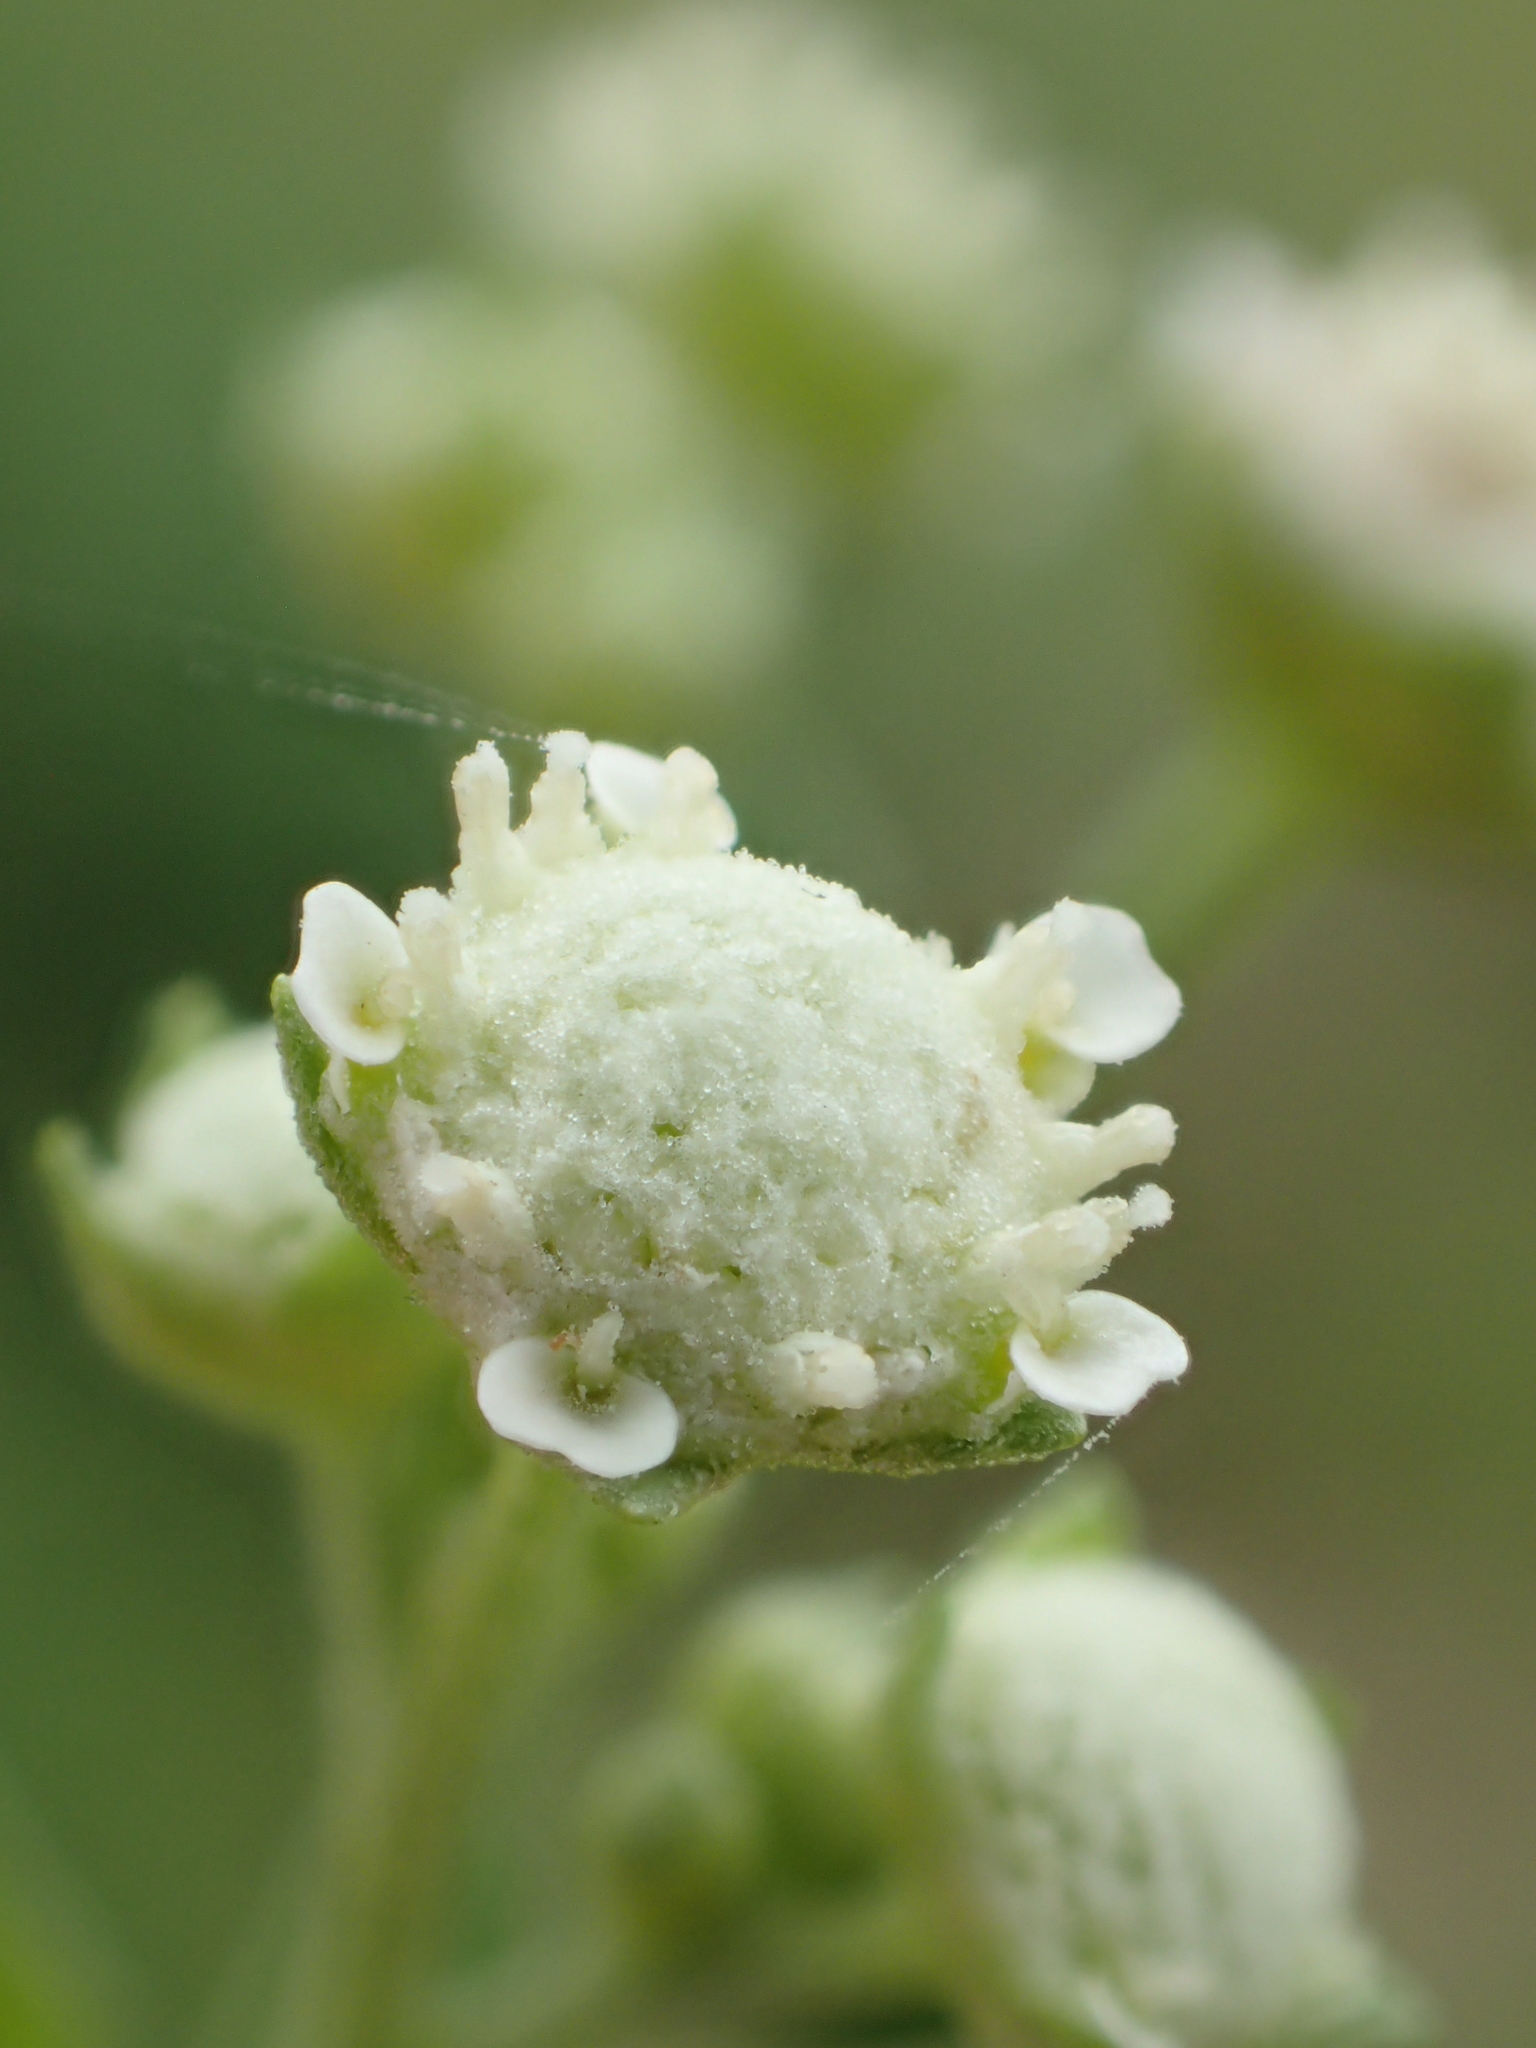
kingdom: Plantae
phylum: Tracheophyta
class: Magnoliopsida
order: Asterales
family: Asteraceae
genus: Parthenium
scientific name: Parthenium hysterophorus
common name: Santa maria feverfew
